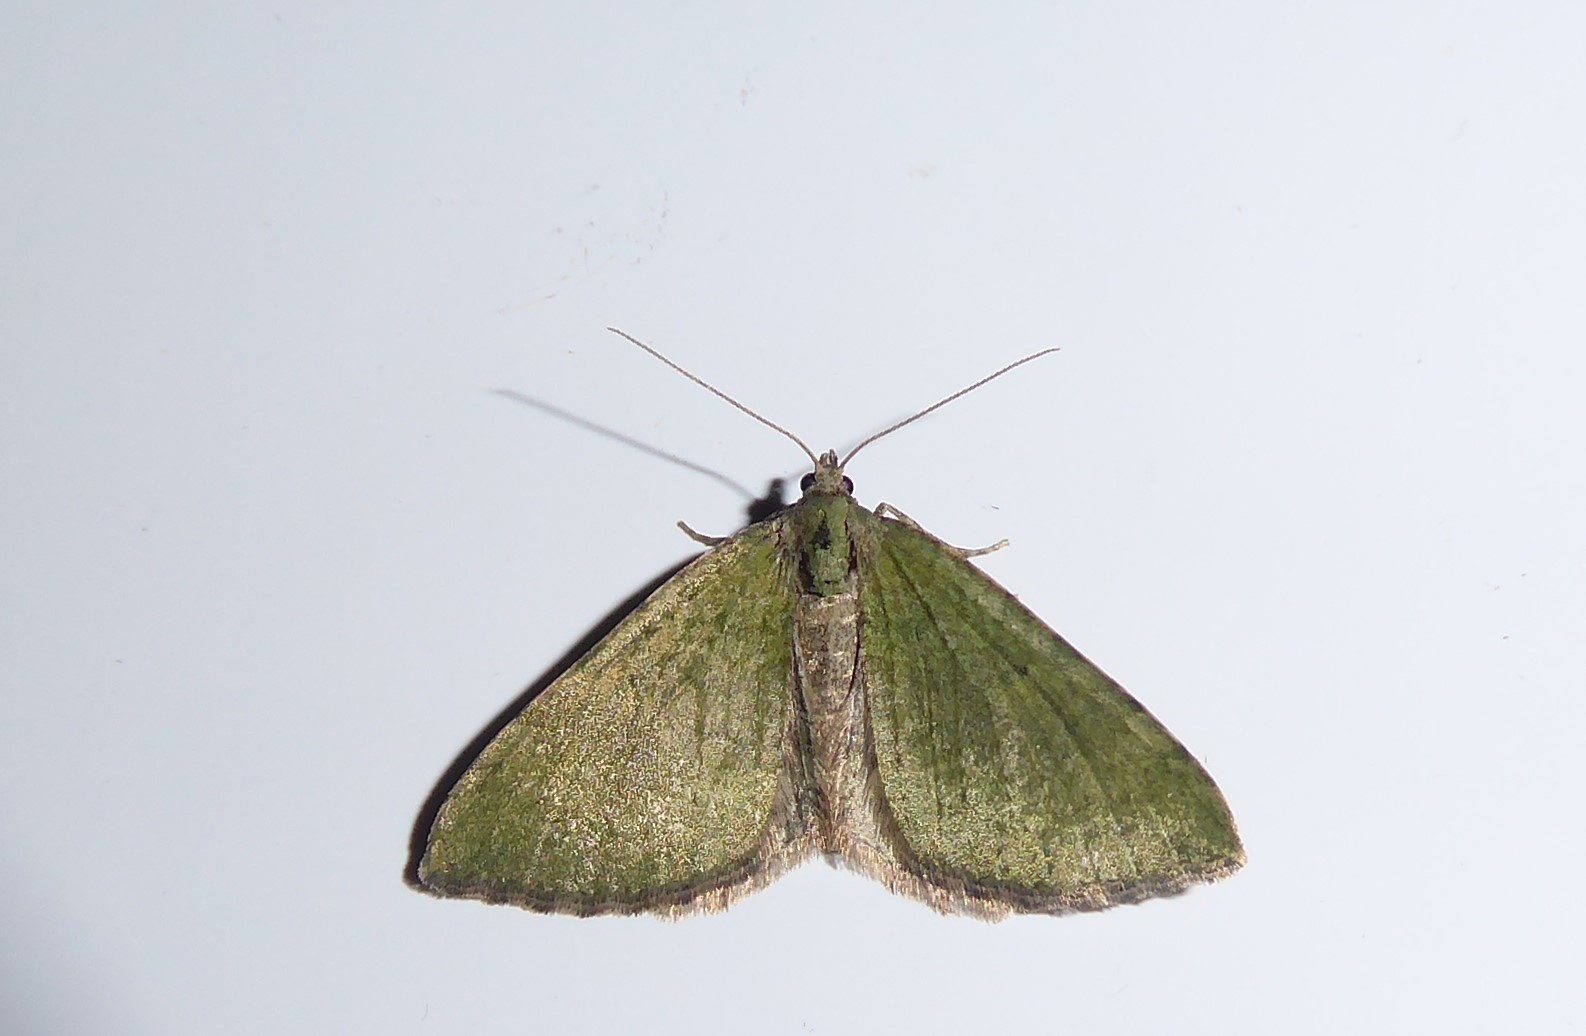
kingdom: Animalia
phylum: Arthropoda
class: Insecta
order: Lepidoptera
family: Geometridae
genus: Epyaxa
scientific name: Epyaxa rosearia
